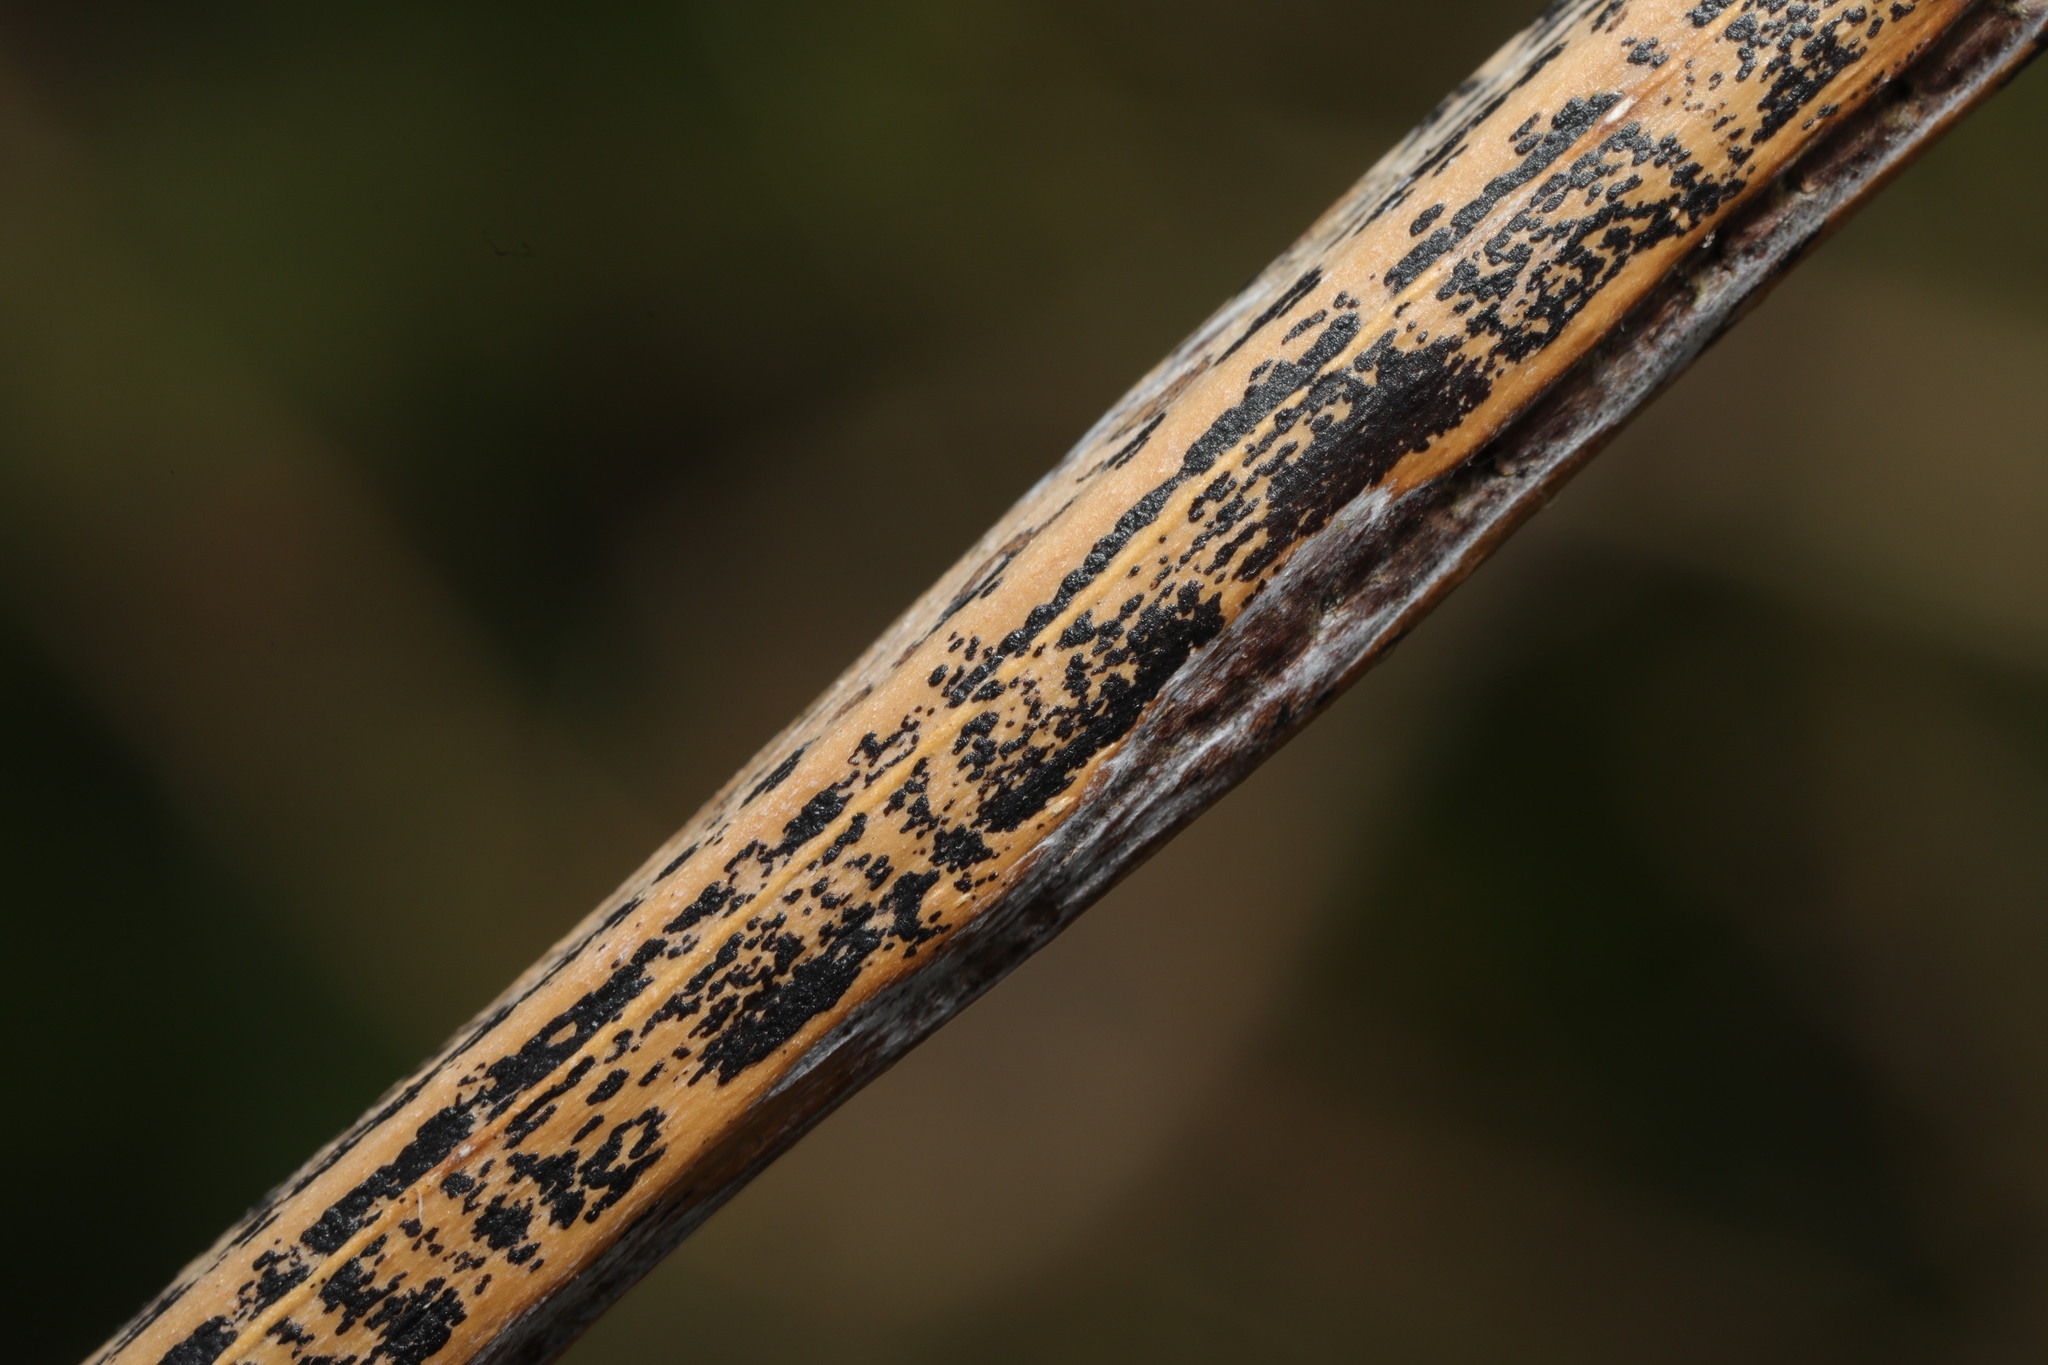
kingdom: Fungi
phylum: Ascomycota
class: Dothideomycetes
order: Pleosporales
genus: Rhopographus
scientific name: Rhopographus filicinus
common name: Bracken map
